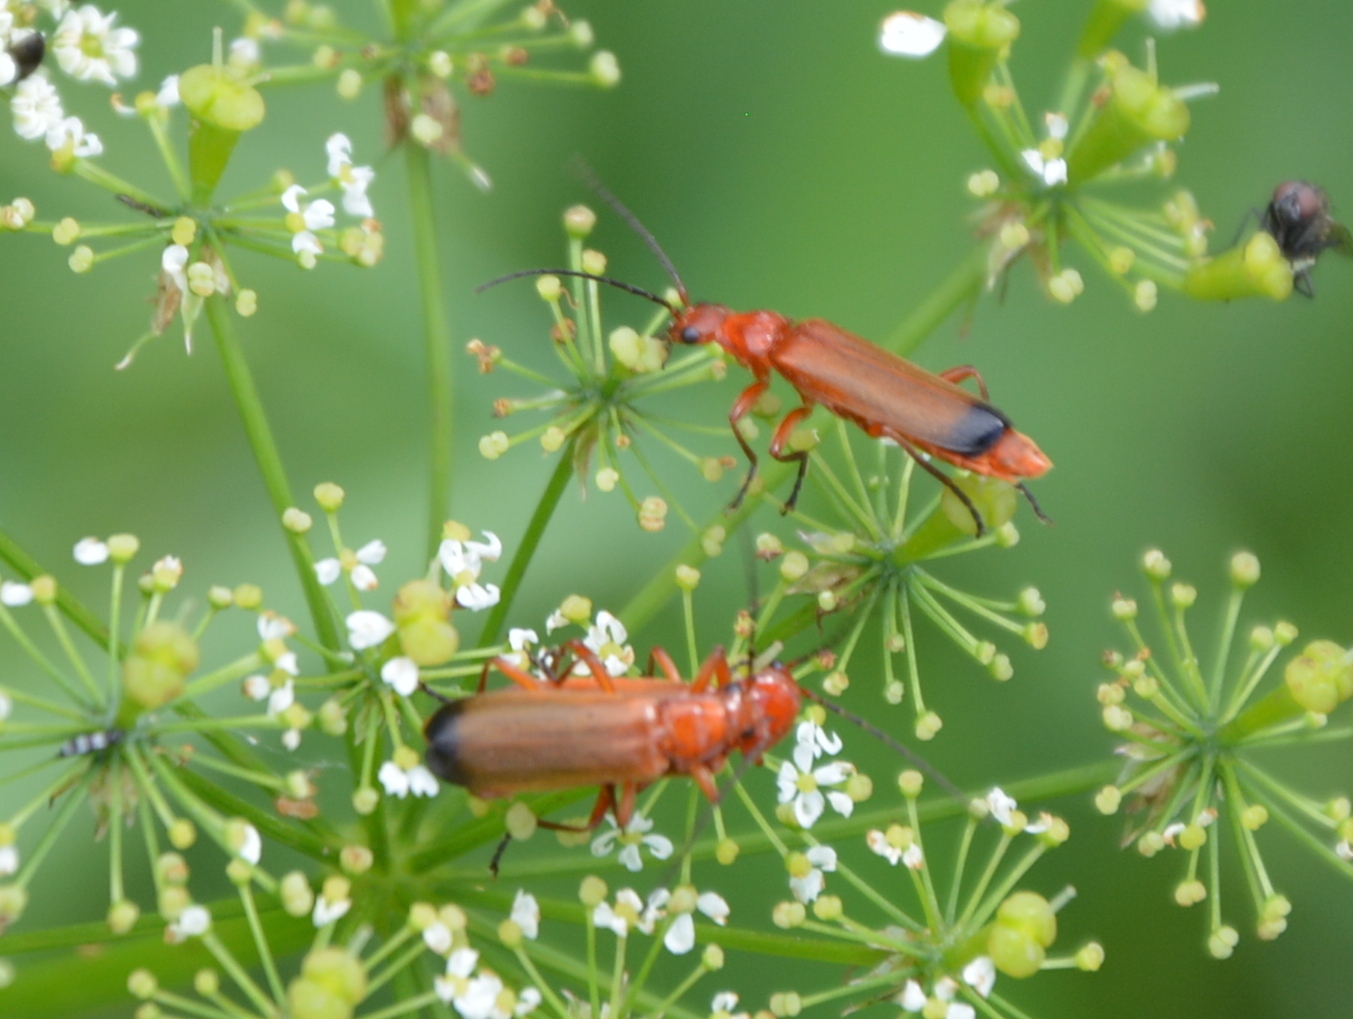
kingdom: Animalia
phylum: Arthropoda
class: Insecta
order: Coleoptera
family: Cantharidae
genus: Rhagonycha
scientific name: Rhagonycha fulva
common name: Common red soldier beetle
